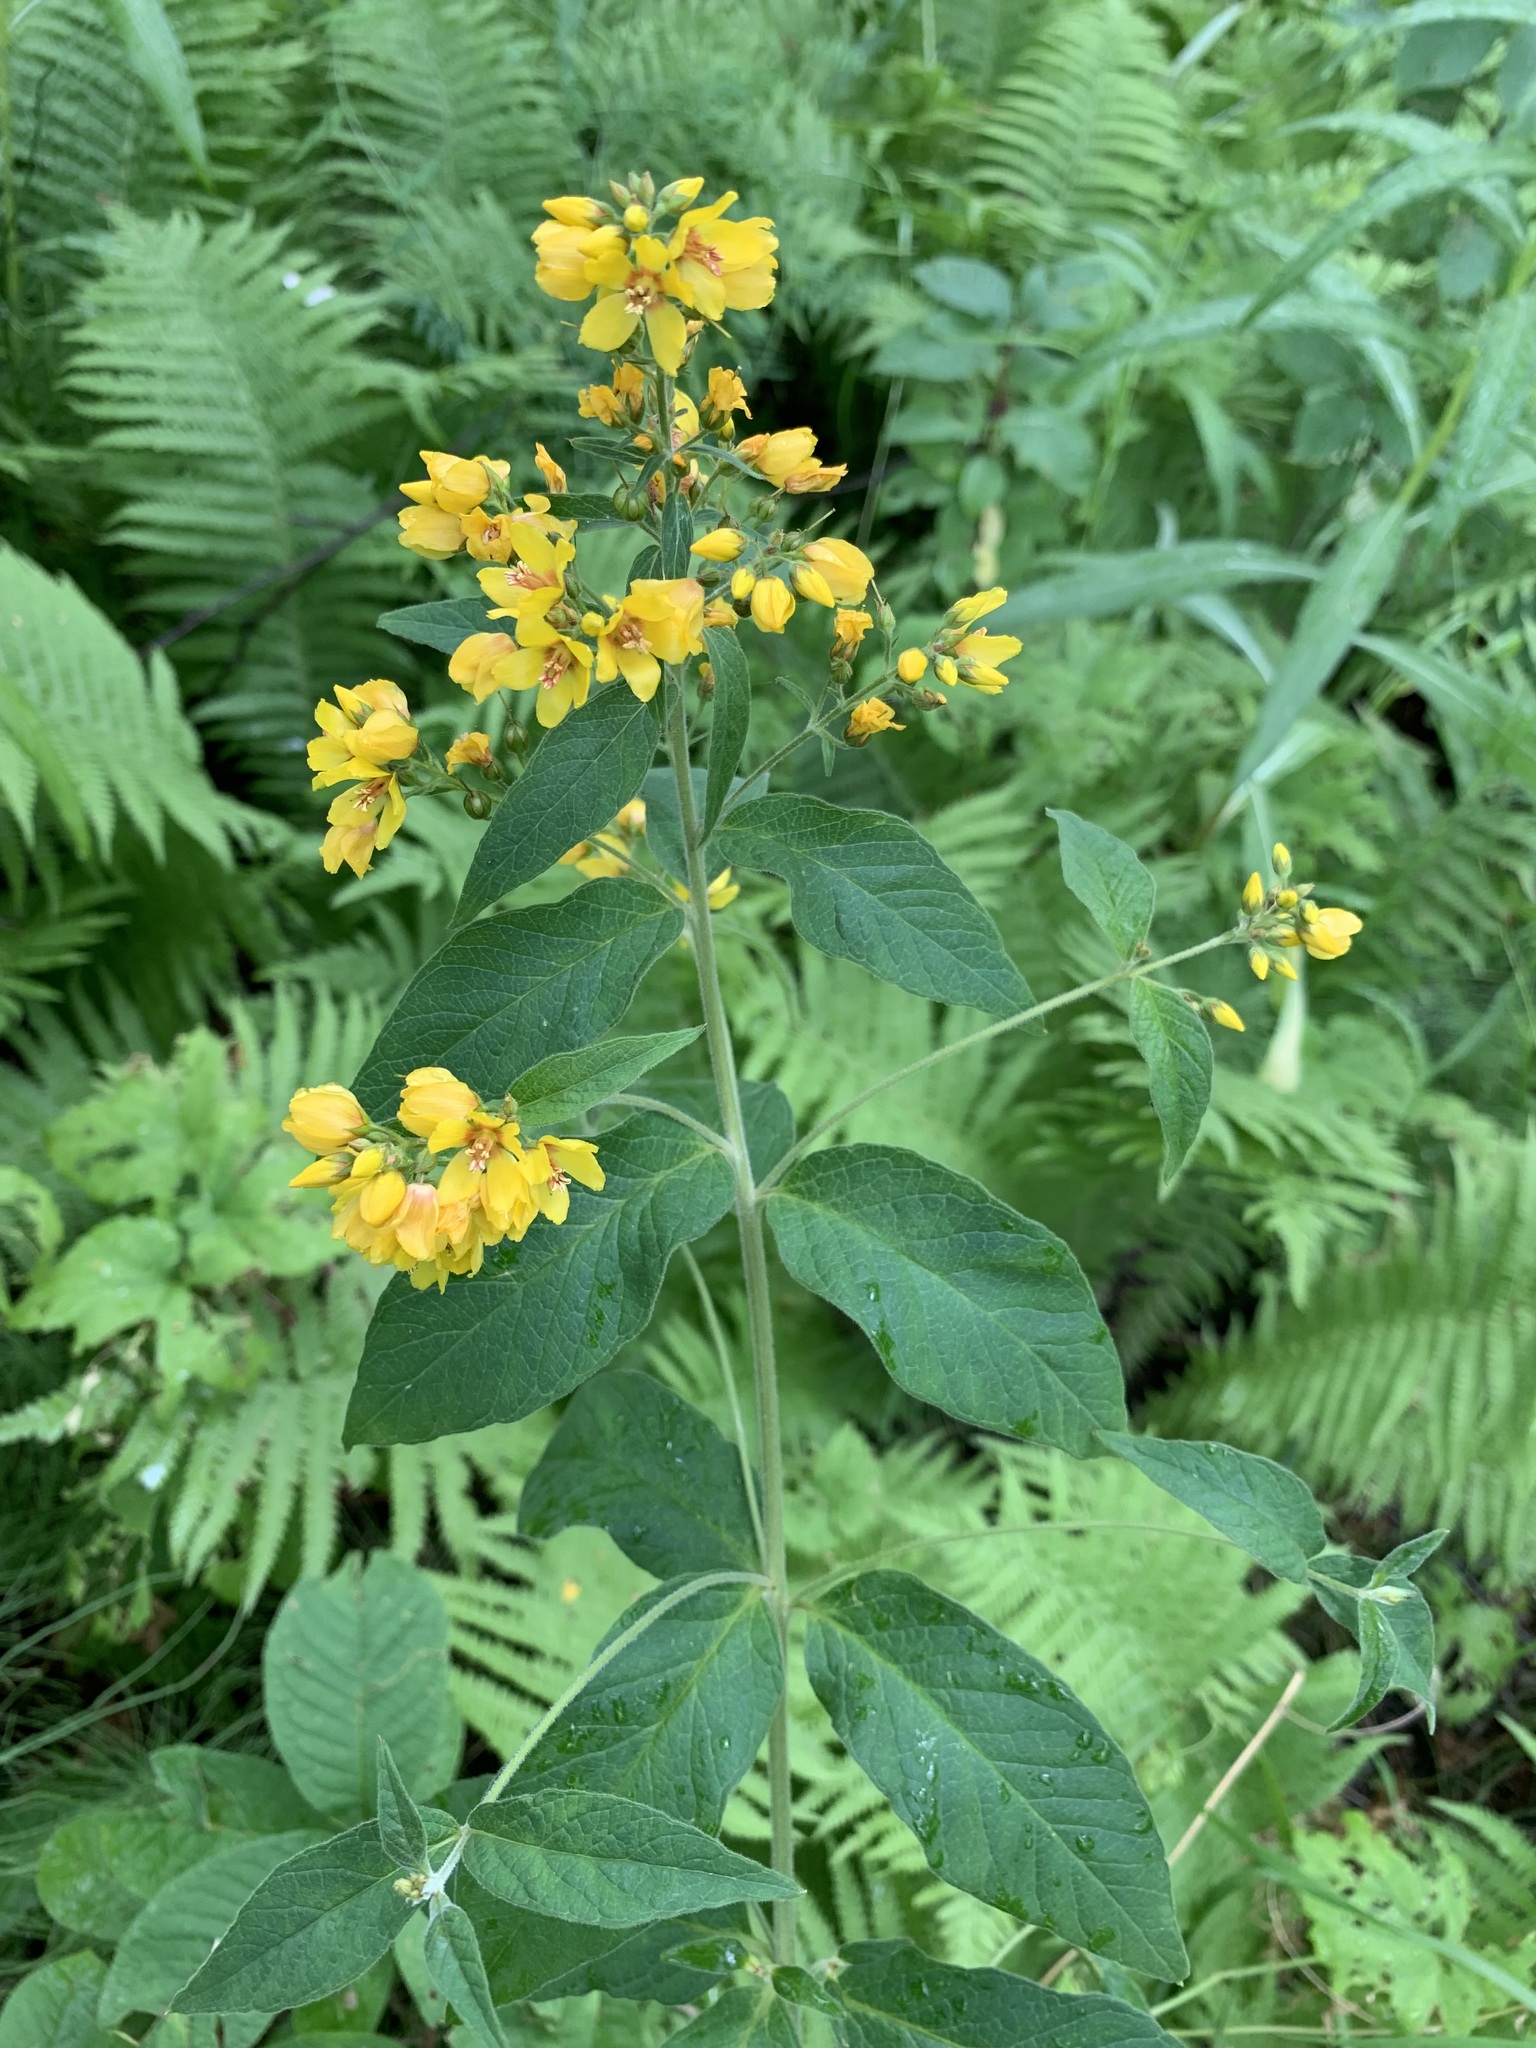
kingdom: Plantae
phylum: Tracheophyta
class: Magnoliopsida
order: Ericales
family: Primulaceae
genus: Lysimachia
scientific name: Lysimachia vulgaris
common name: Yellow loosestrife
